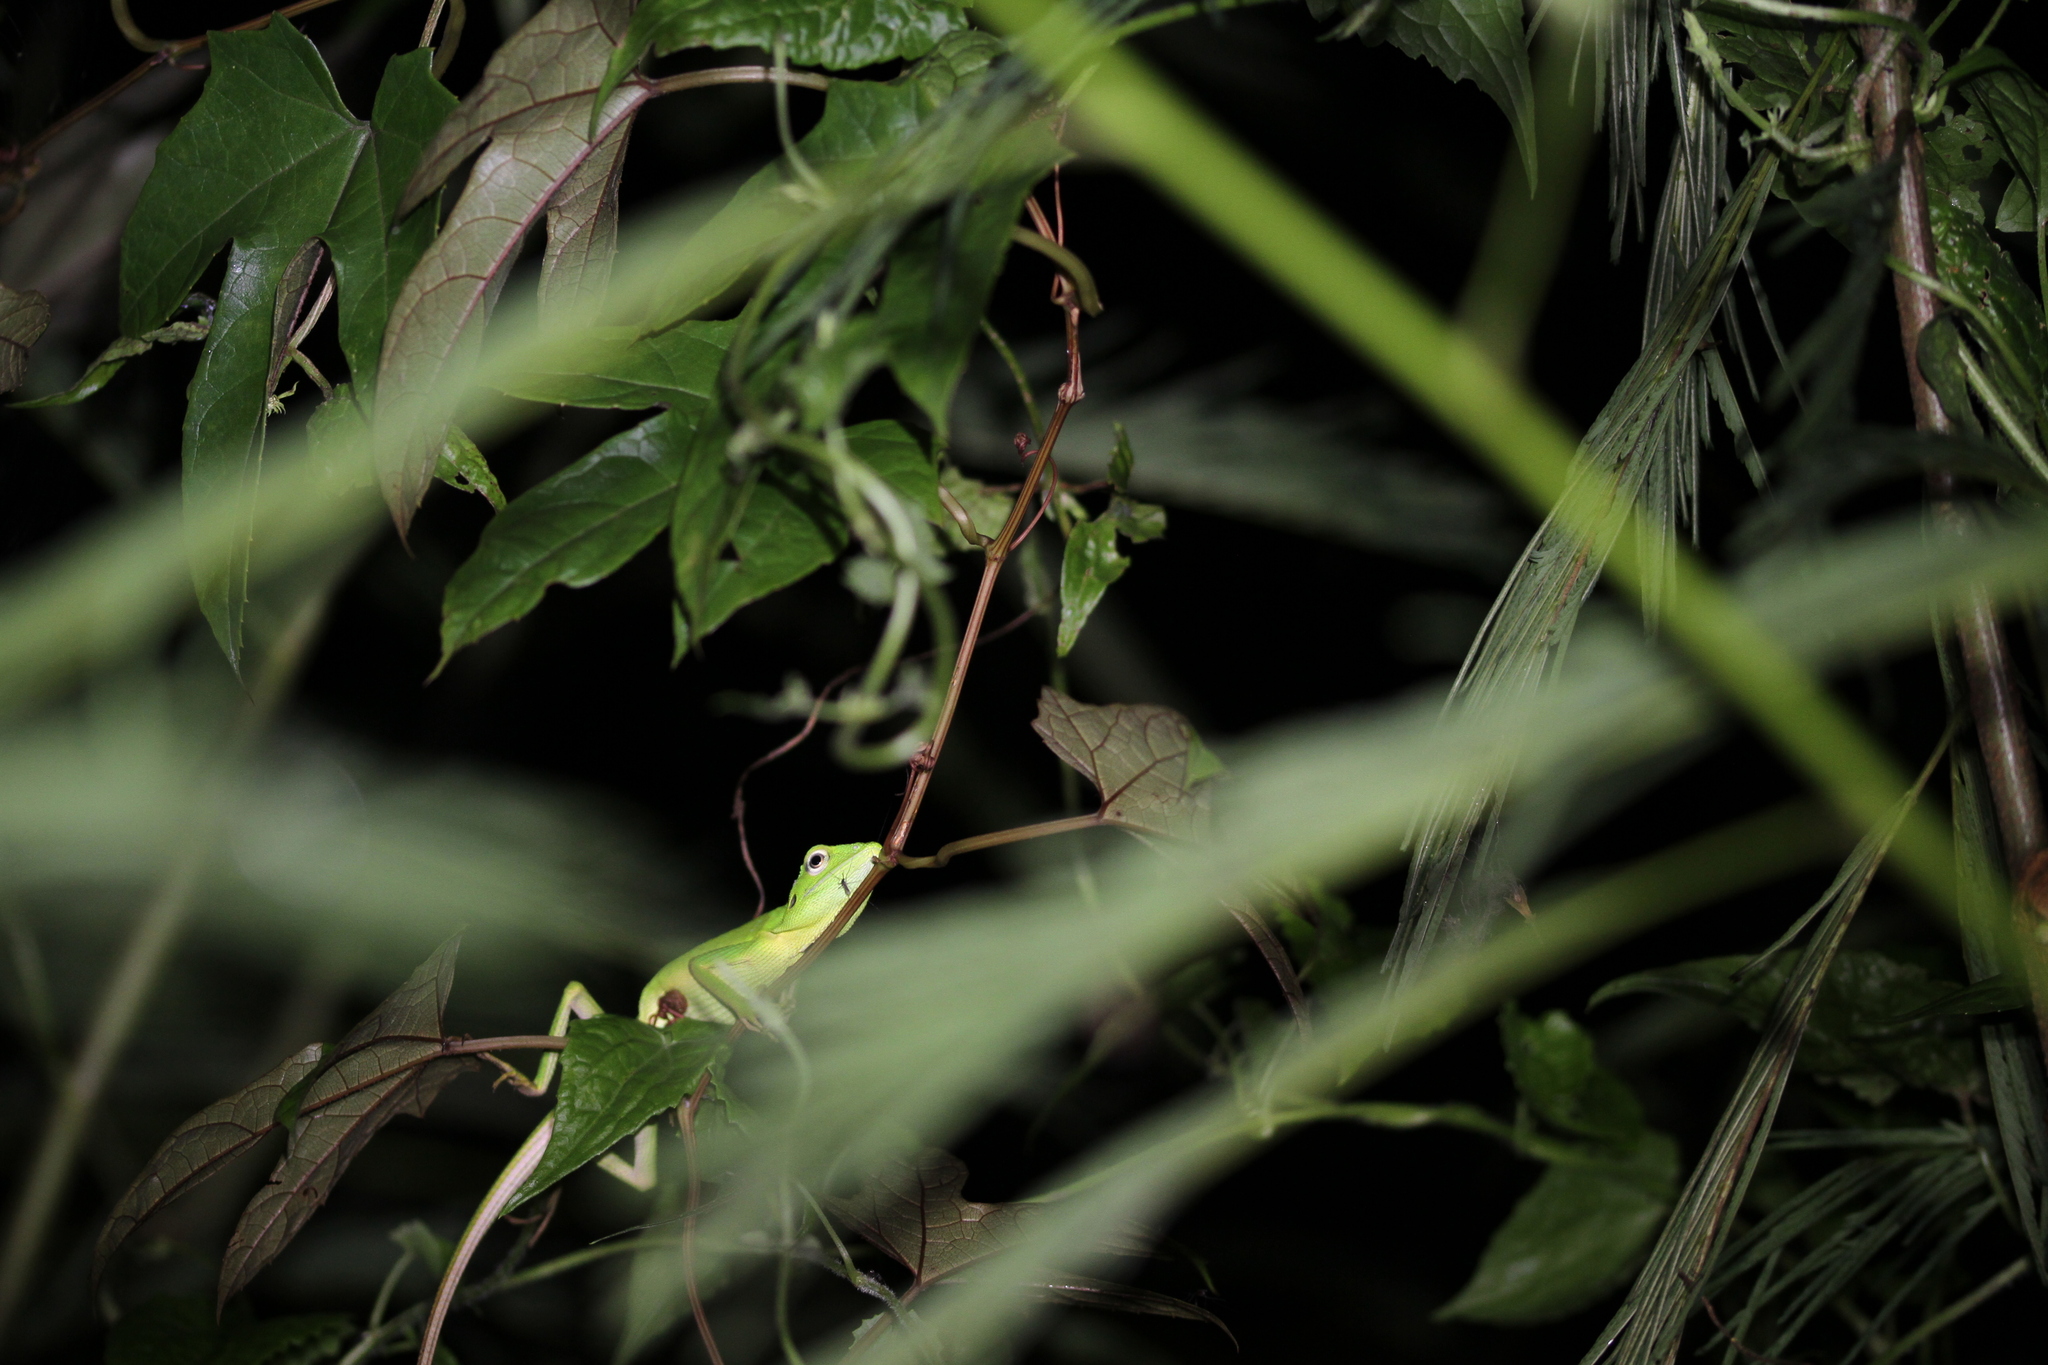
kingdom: Animalia
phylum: Chordata
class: Squamata
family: Agamidae
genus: Bronchocela
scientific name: Bronchocela cristatella
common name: Green crested lizard
